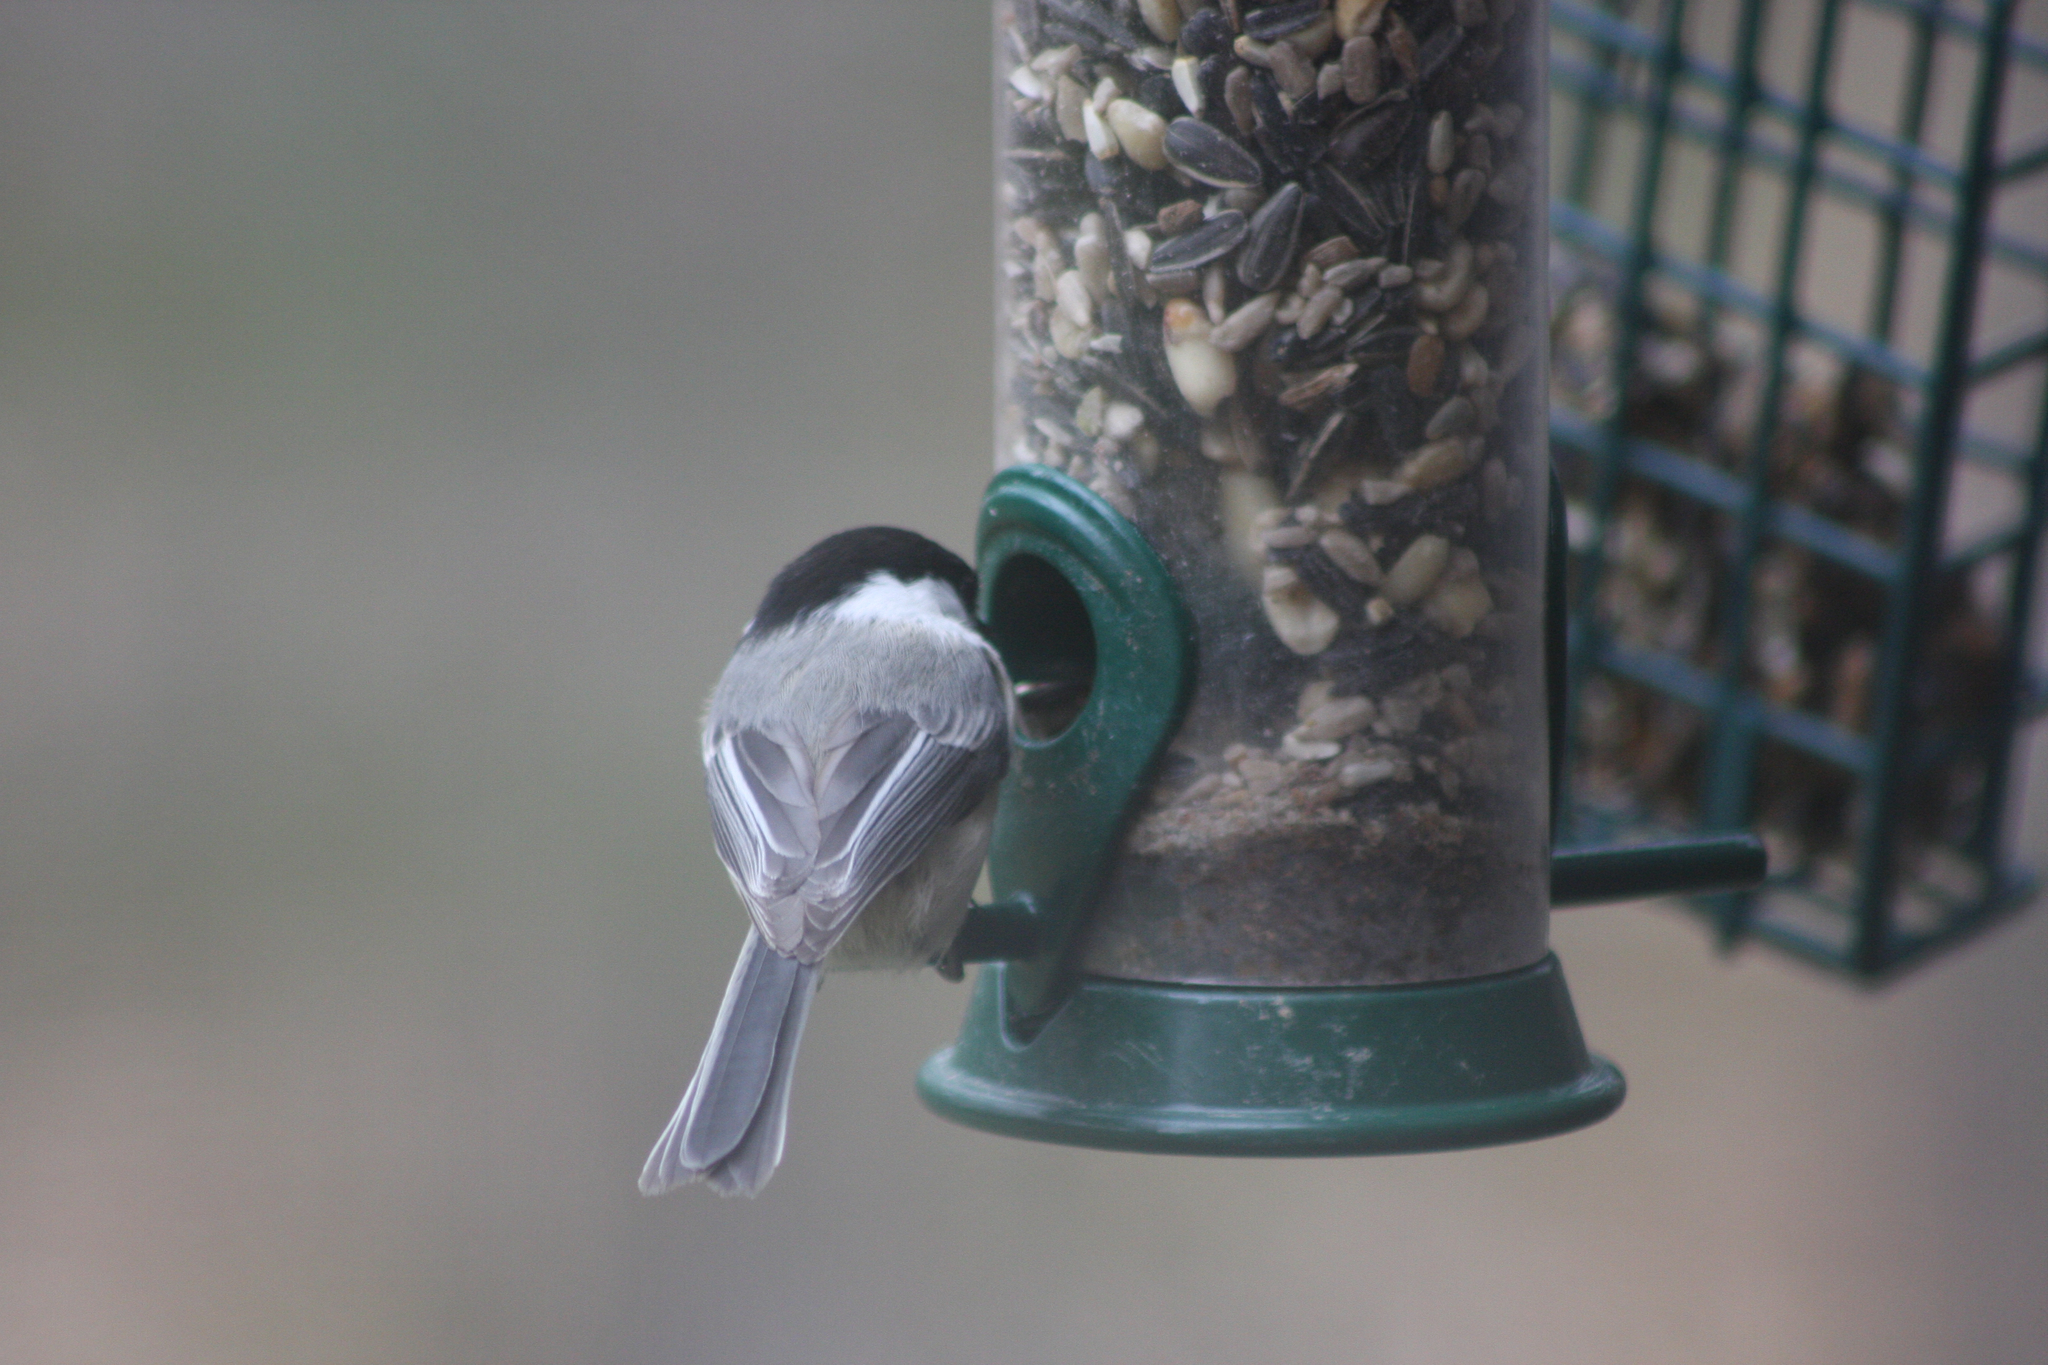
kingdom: Animalia
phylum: Chordata
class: Aves
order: Passeriformes
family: Paridae
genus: Poecile
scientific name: Poecile atricapillus
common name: Black-capped chickadee
